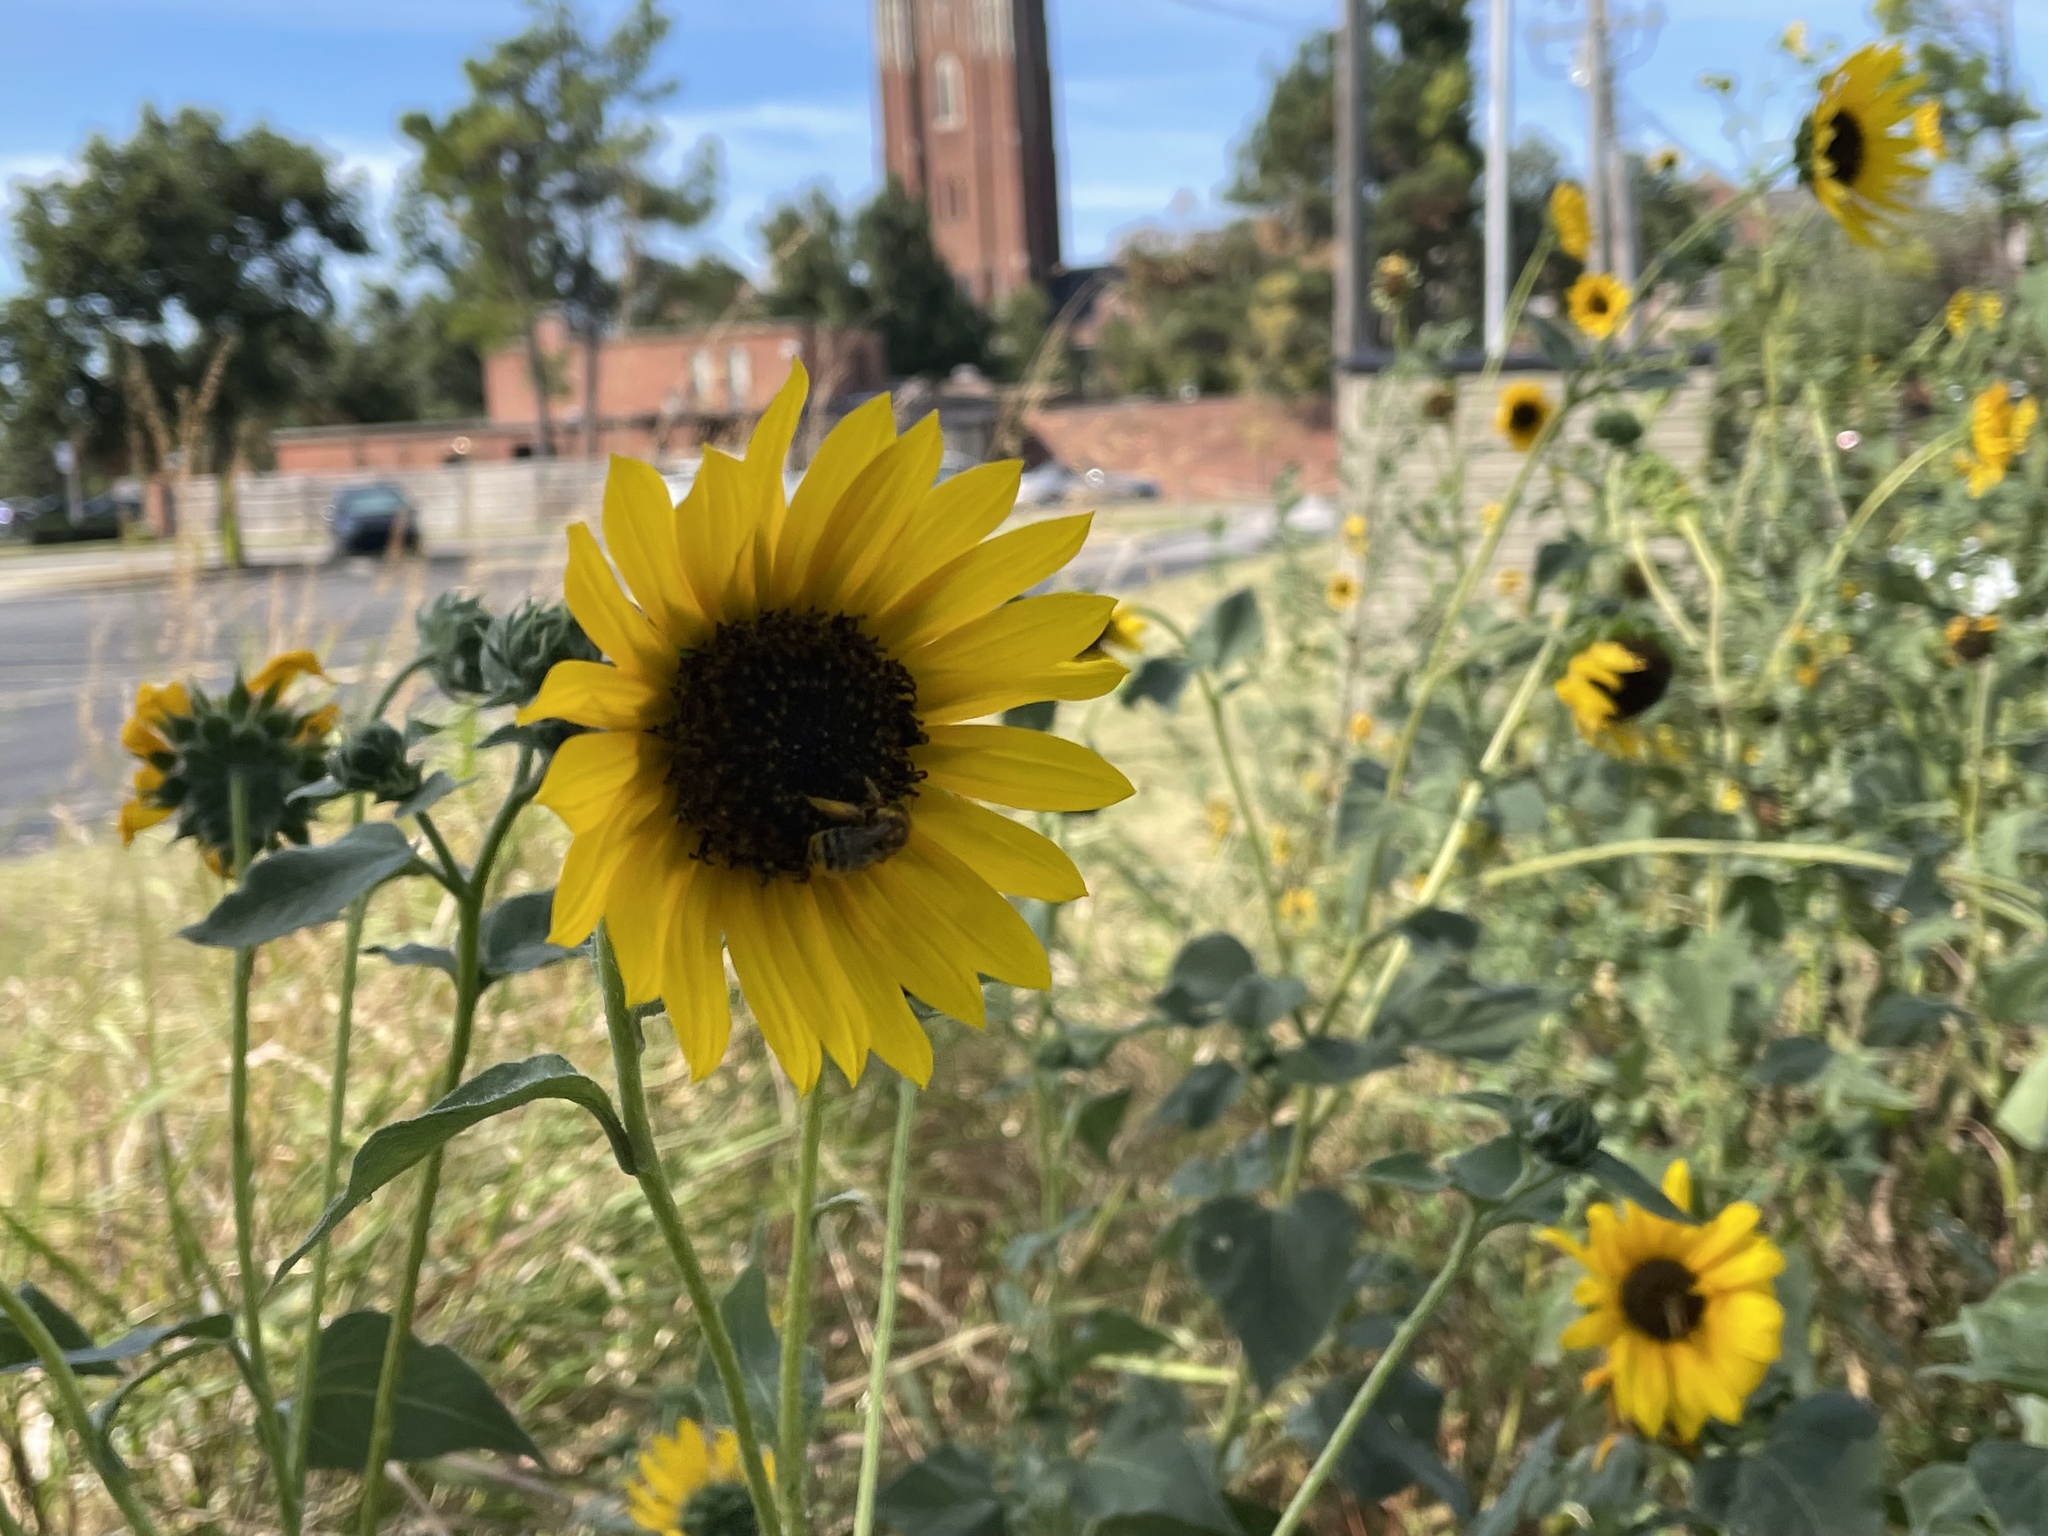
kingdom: Plantae
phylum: Tracheophyta
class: Magnoliopsida
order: Asterales
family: Asteraceae
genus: Helianthus
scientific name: Helianthus annuus
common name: Sunflower
